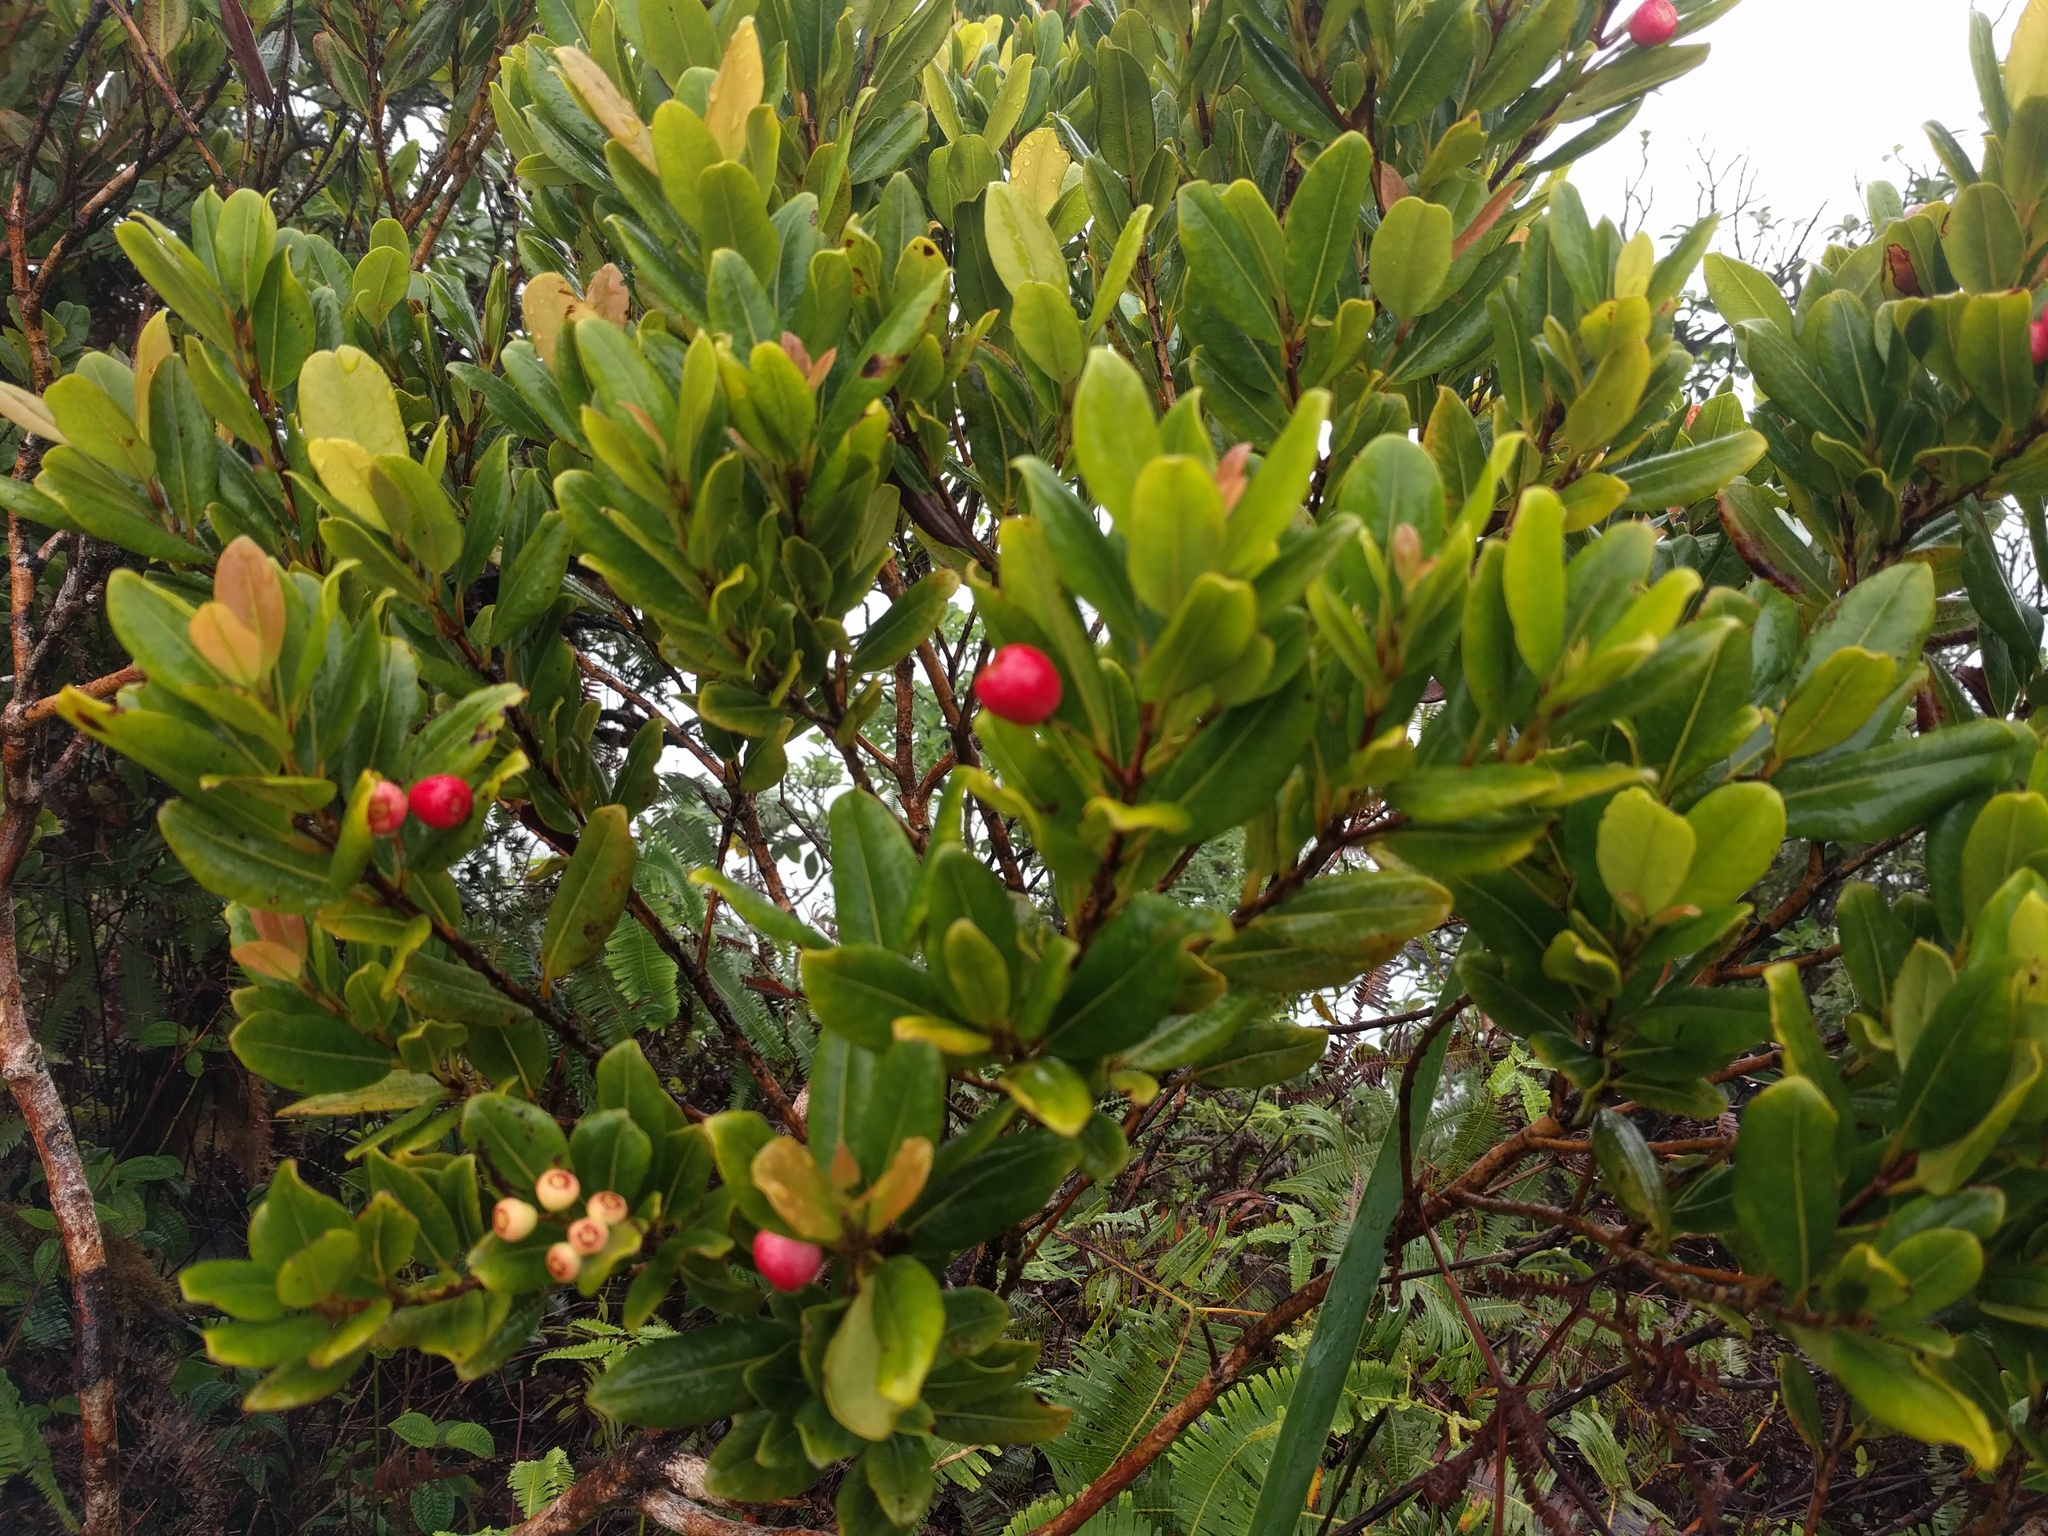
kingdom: Plantae
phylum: Tracheophyta
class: Magnoliopsida
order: Myrtales
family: Myrtaceae
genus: Syzygium
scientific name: Syzygium sandwicense
